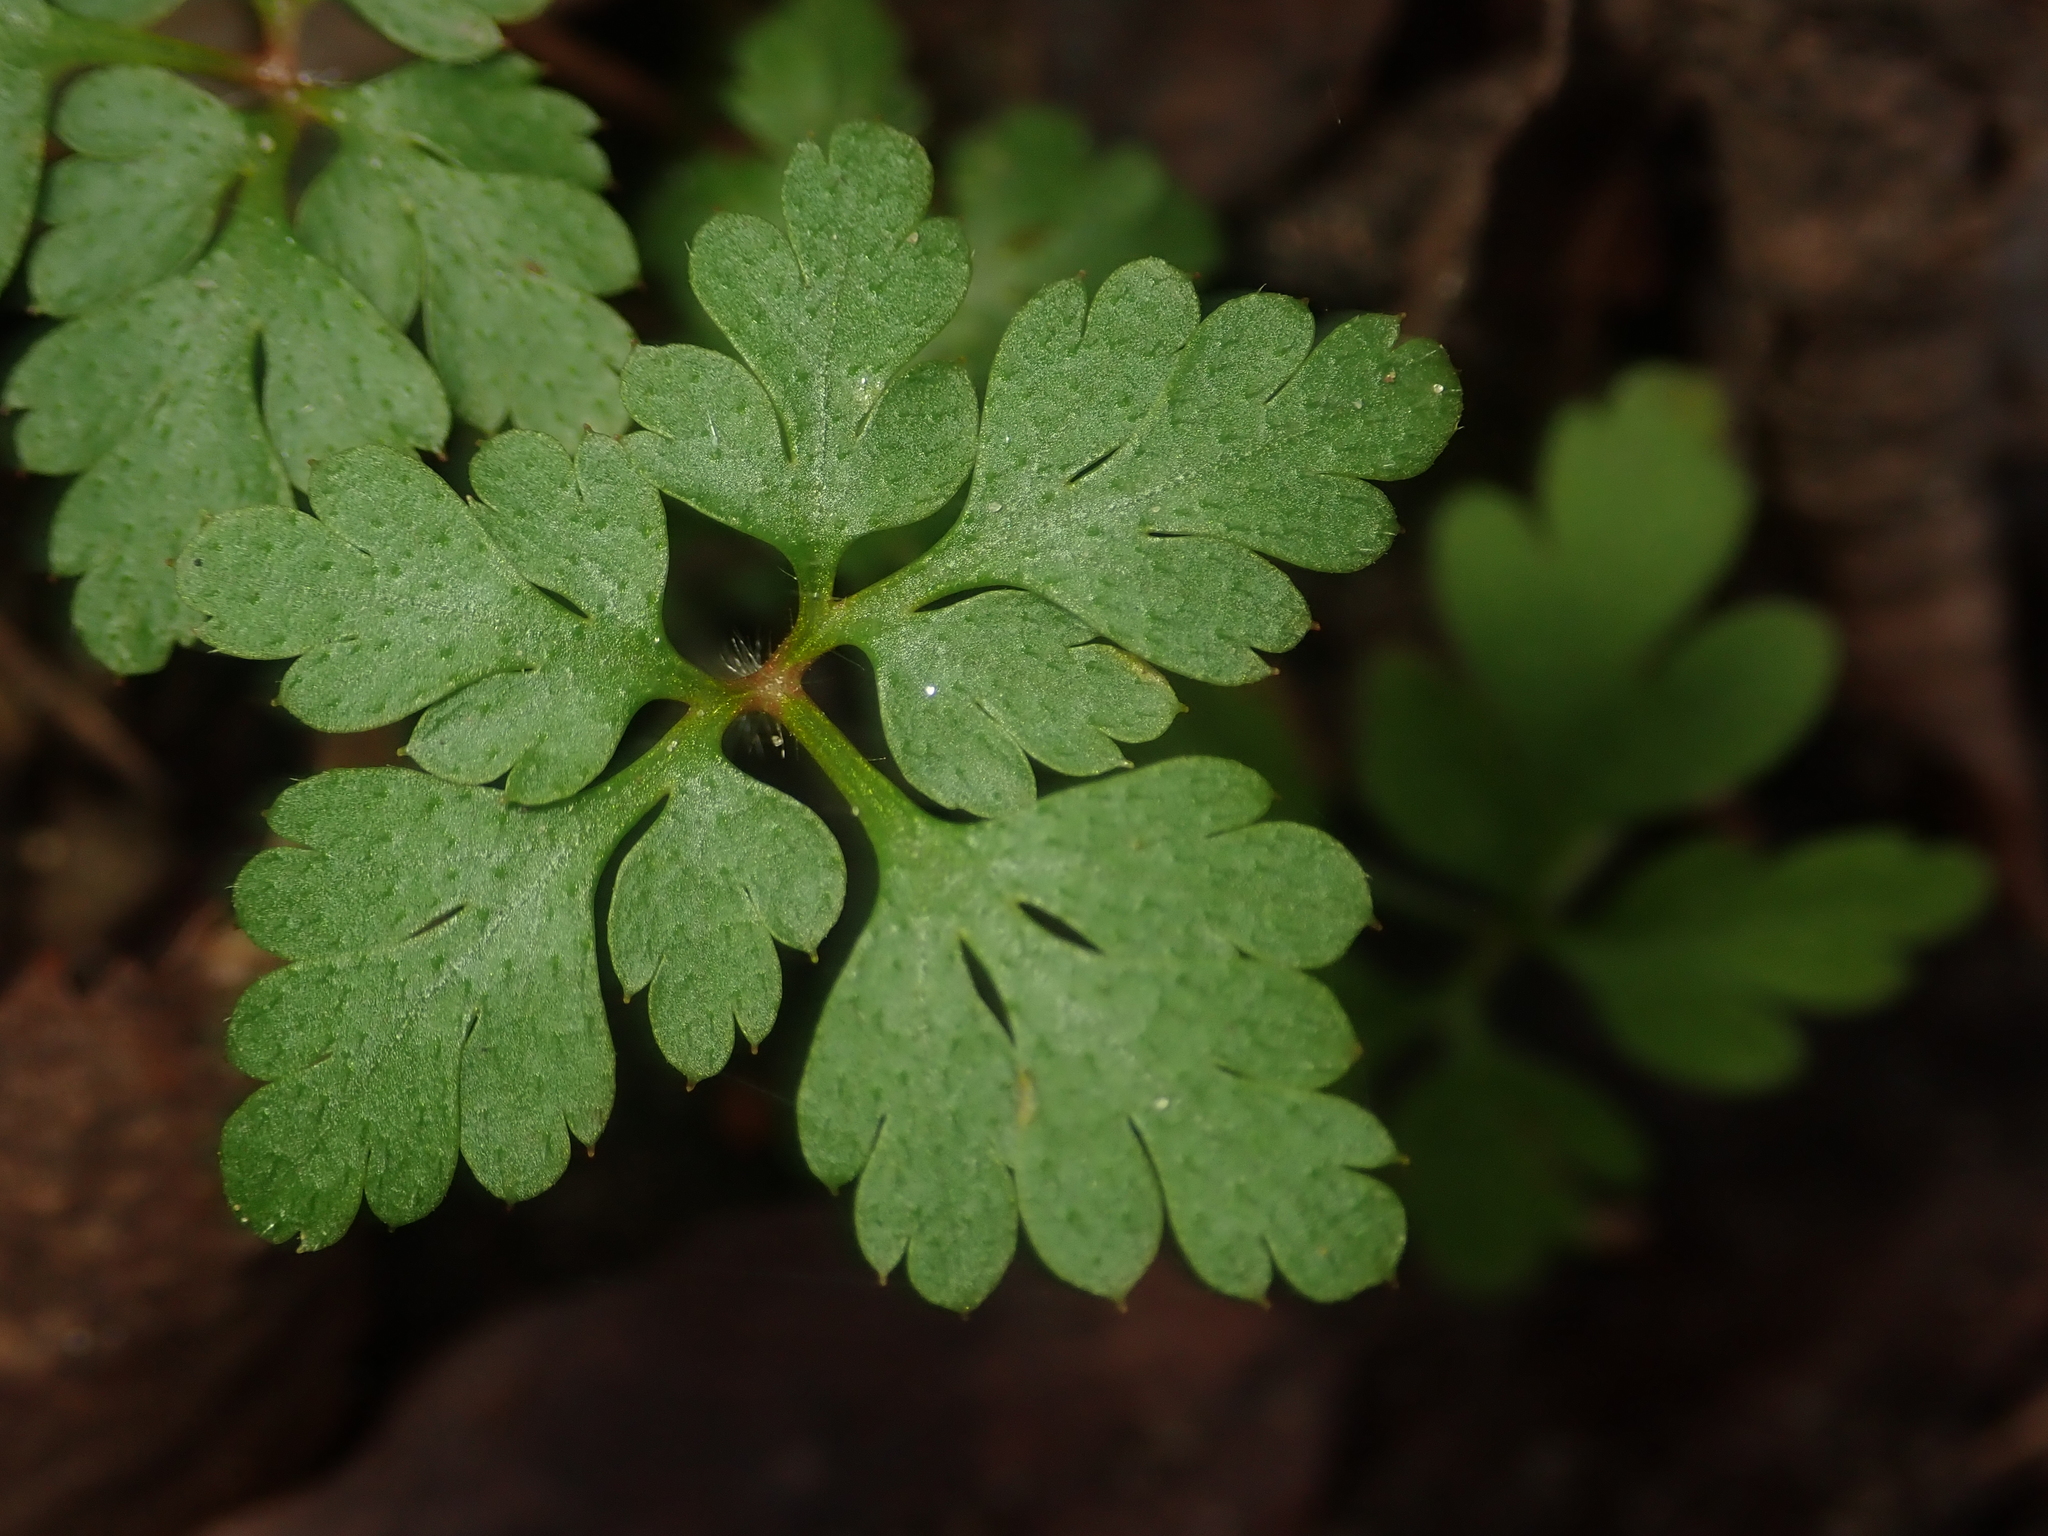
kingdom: Plantae
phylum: Tracheophyta
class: Magnoliopsida
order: Geraniales
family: Geraniaceae
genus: Geranium
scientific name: Geranium robertianum
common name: Herb-robert
